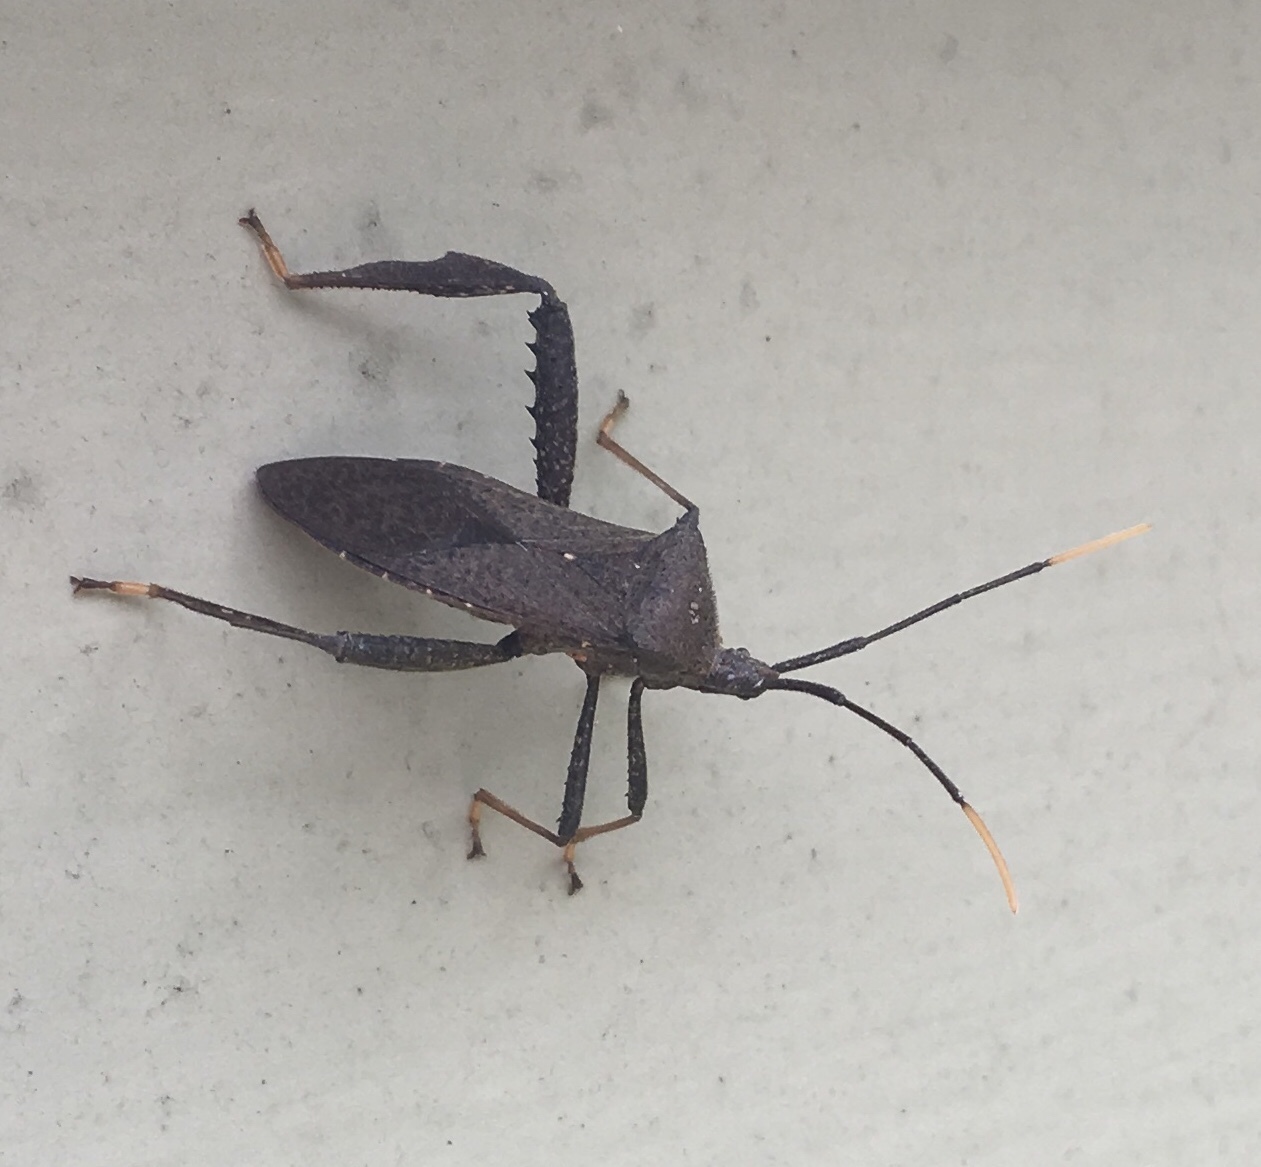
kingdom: Animalia
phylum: Arthropoda
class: Insecta
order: Hemiptera
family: Coreidae
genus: Acanthocephala
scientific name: Acanthocephala terminalis
